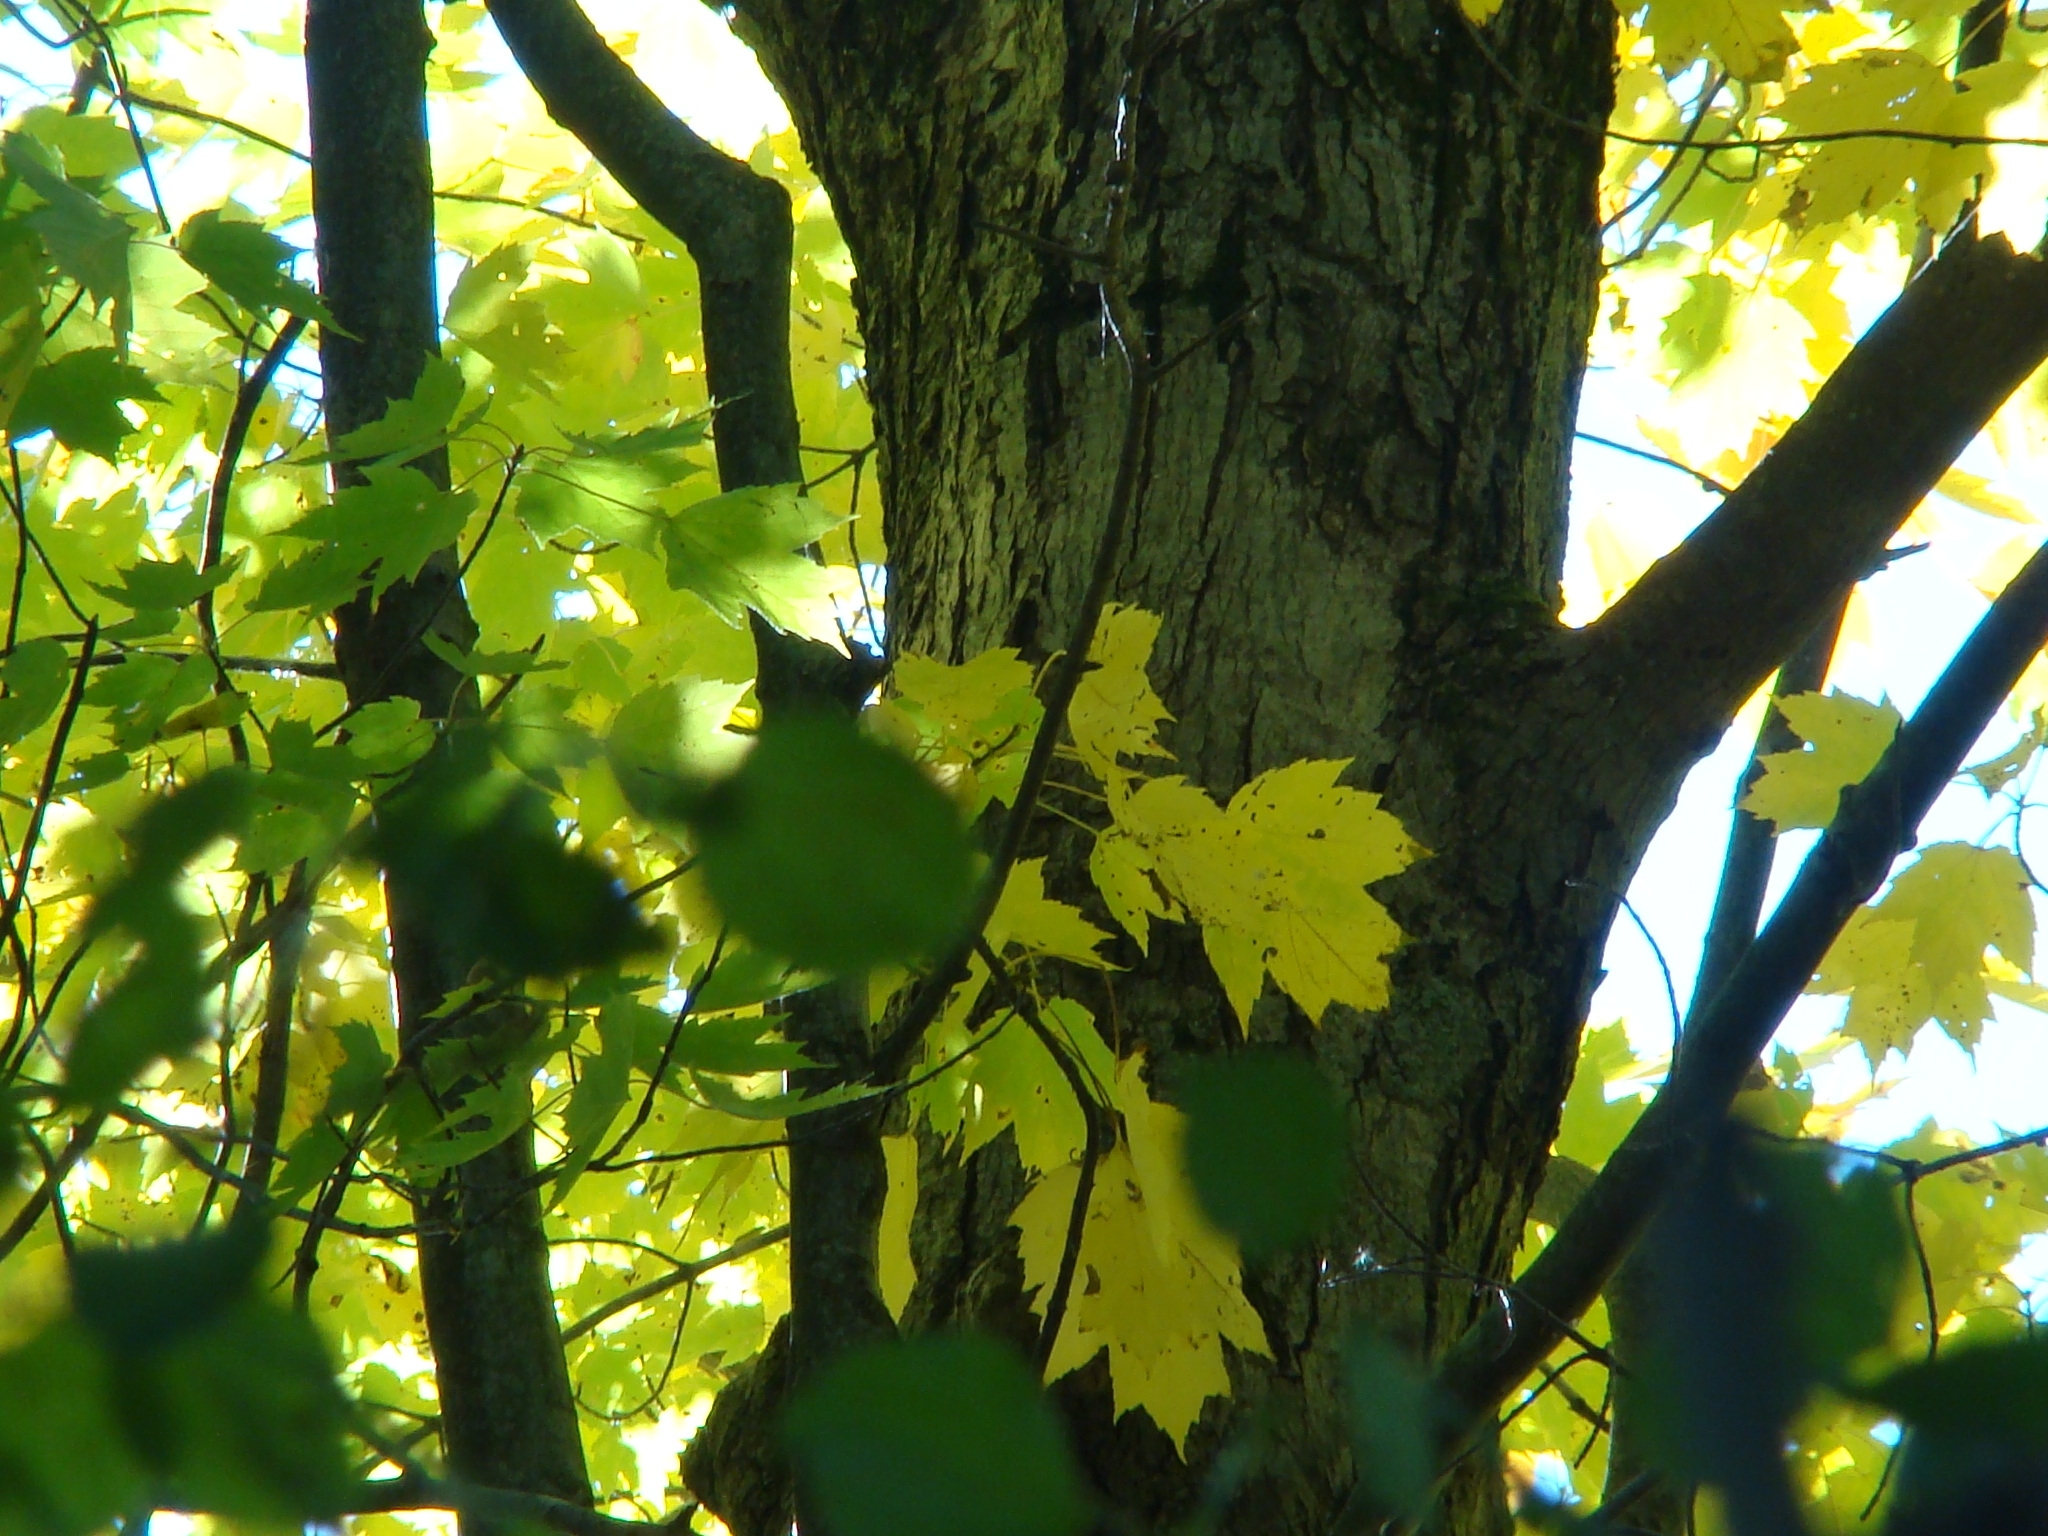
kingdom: Plantae
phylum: Tracheophyta
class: Magnoliopsida
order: Sapindales
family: Sapindaceae
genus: Acer
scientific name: Acer saccharum
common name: Sugar maple
